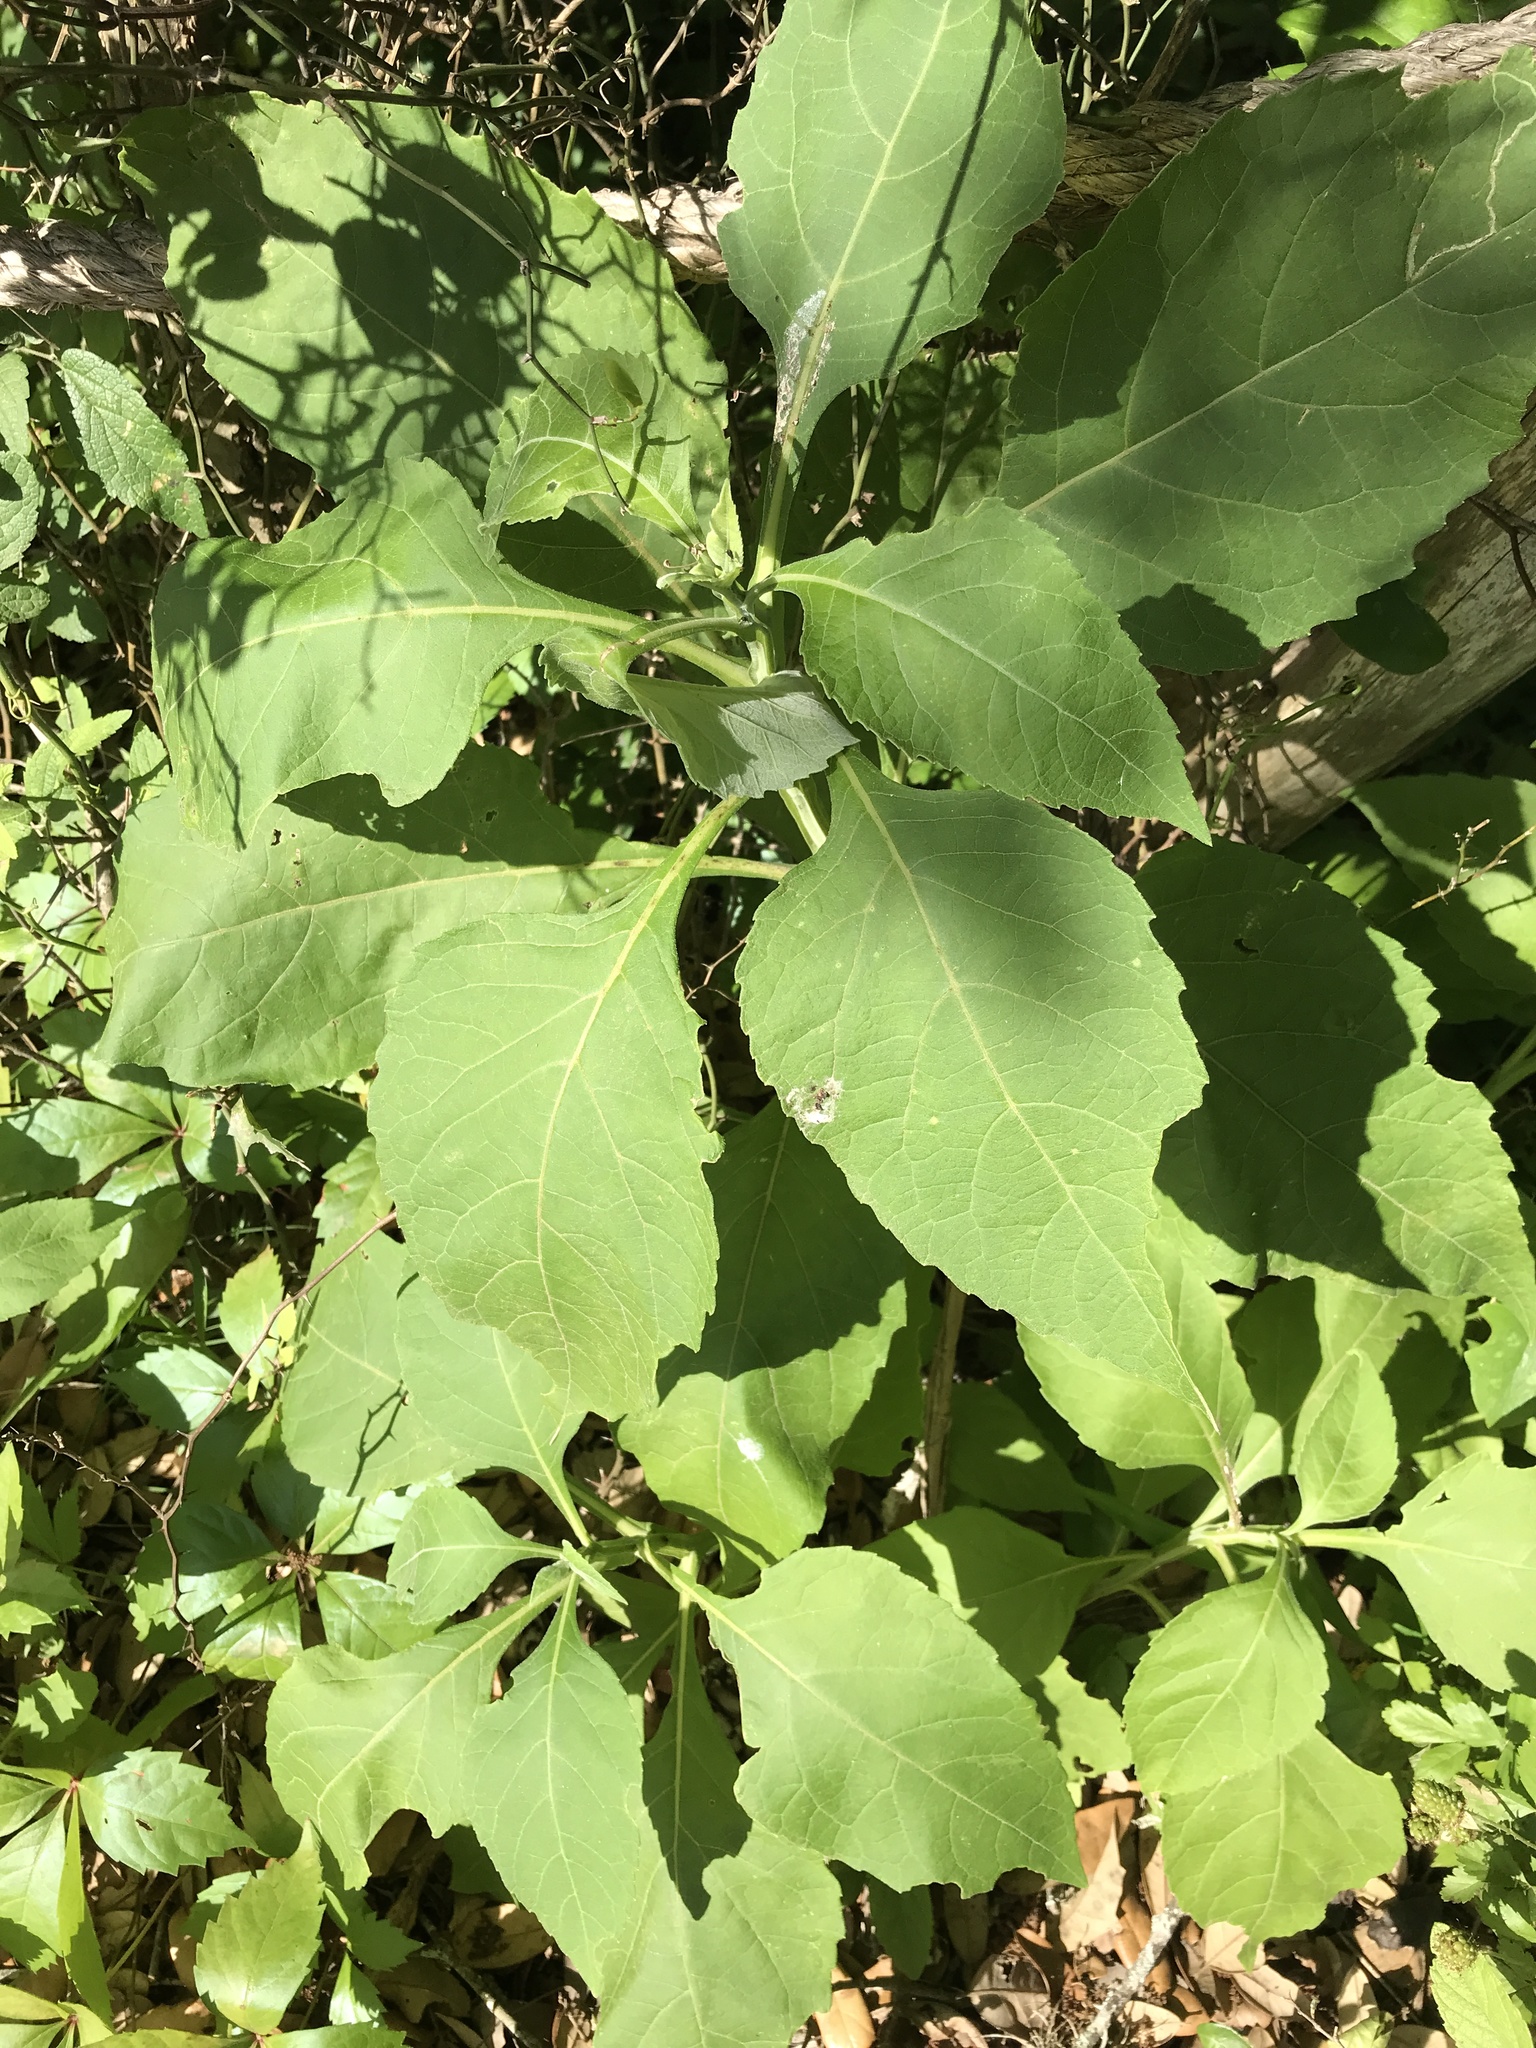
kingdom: Plantae
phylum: Tracheophyta
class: Magnoliopsida
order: Asterales
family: Asteraceae
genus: Verbesina
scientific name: Verbesina virginica
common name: Frostweed
